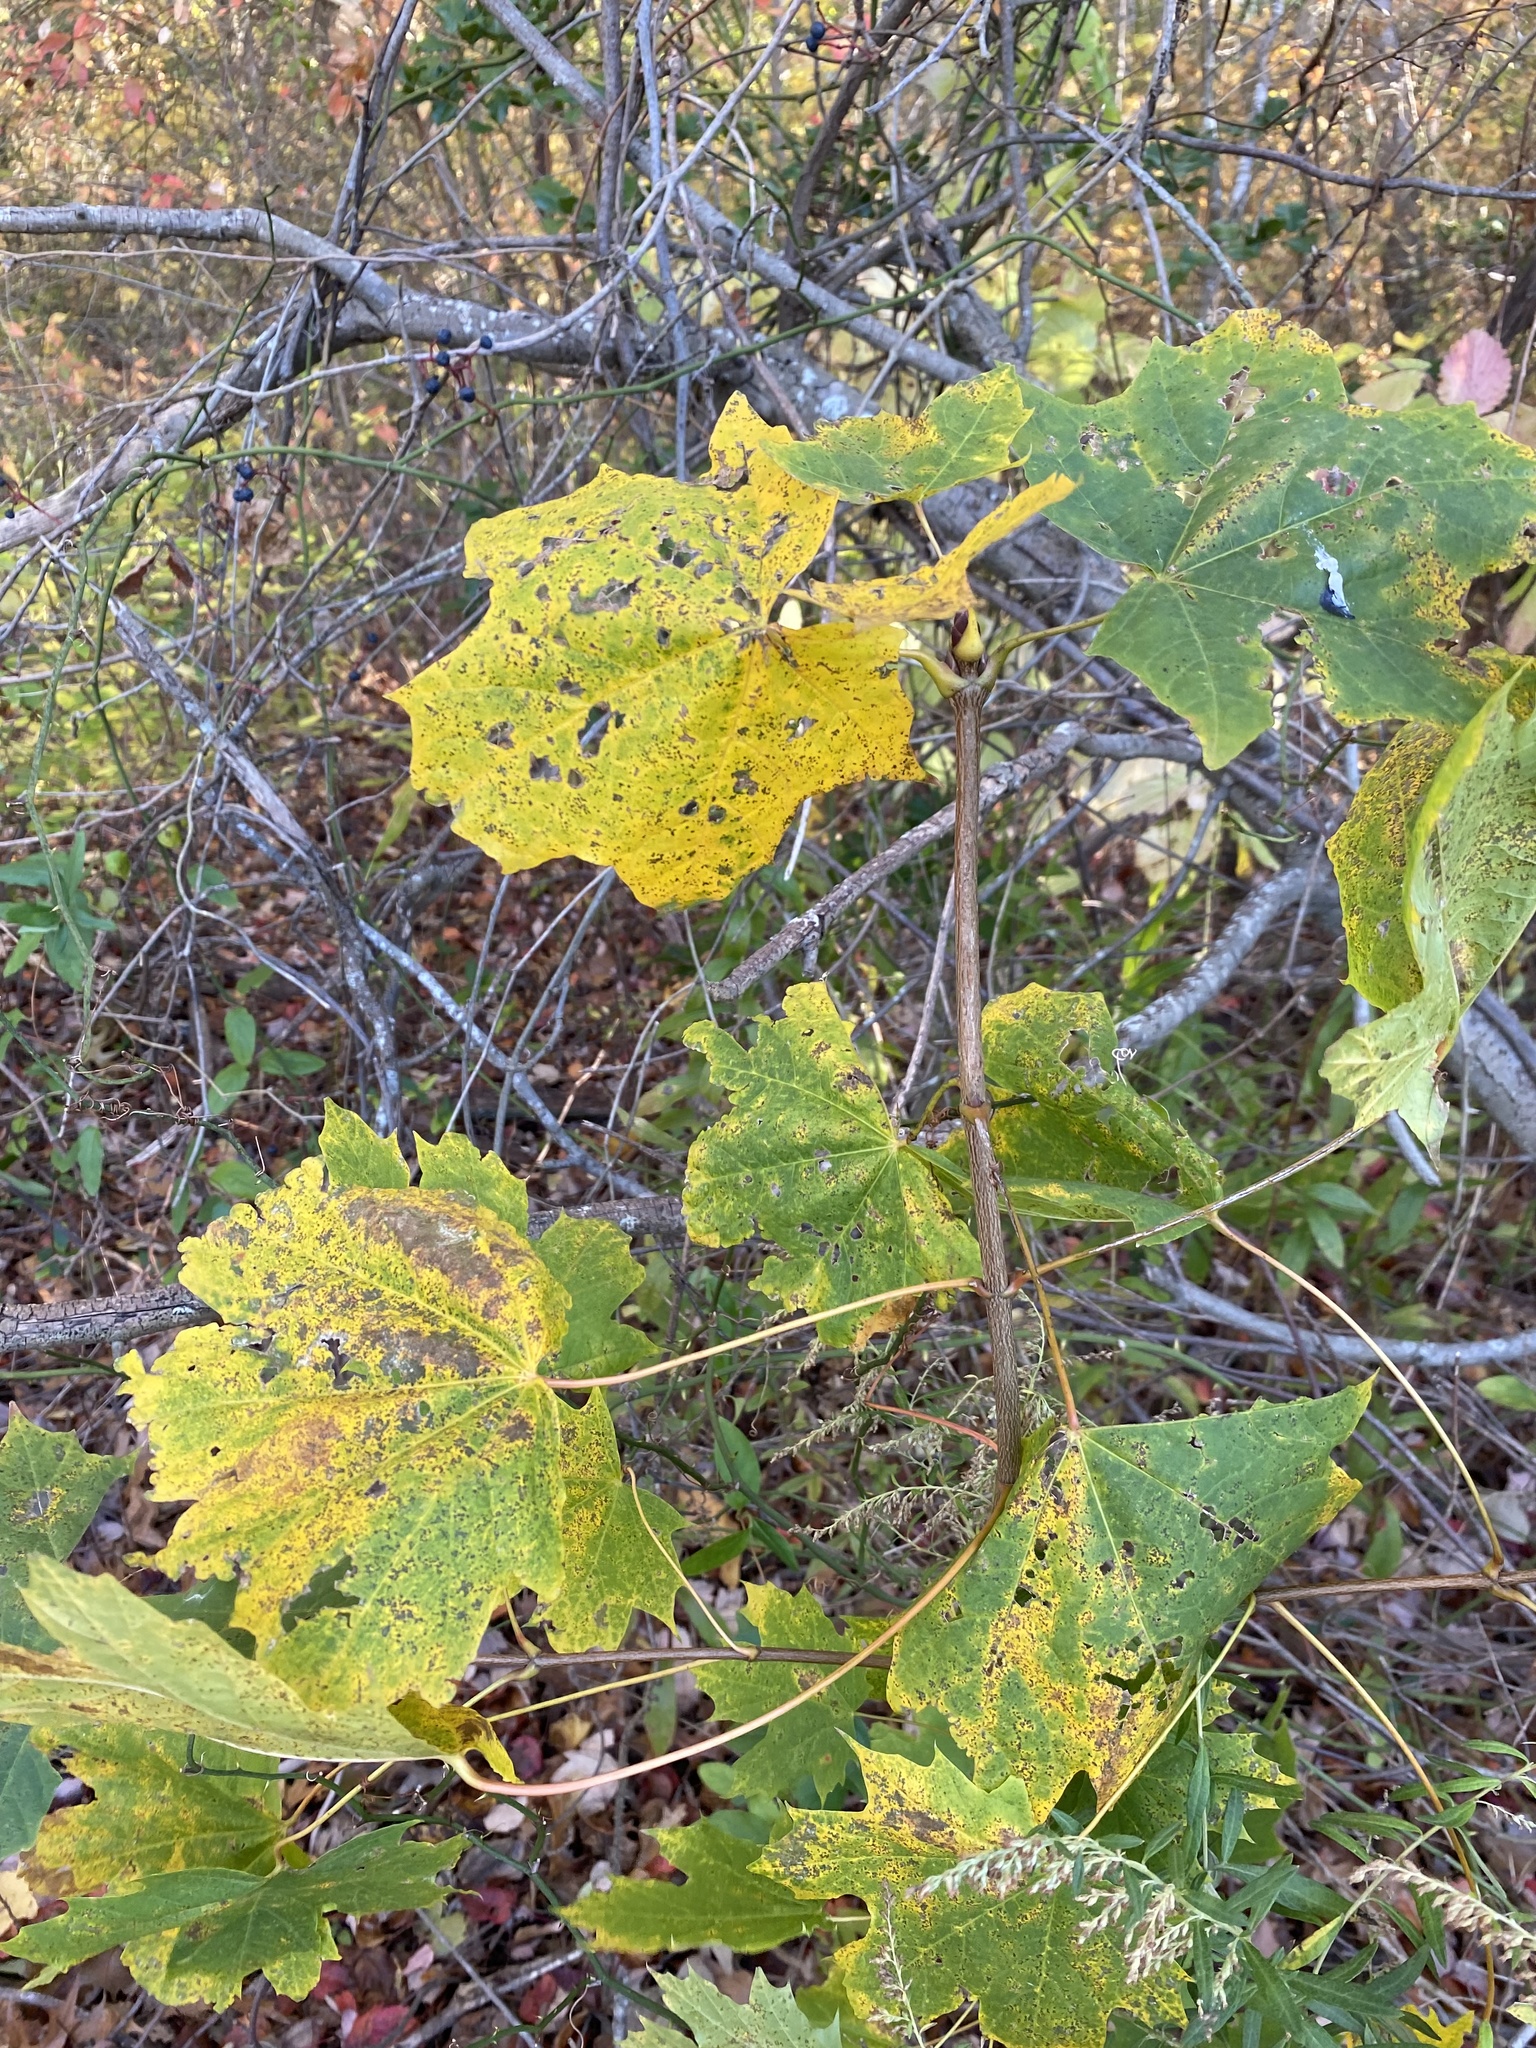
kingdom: Plantae
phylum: Tracheophyta
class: Magnoliopsida
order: Sapindales
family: Sapindaceae
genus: Acer
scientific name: Acer platanoides
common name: Norway maple
